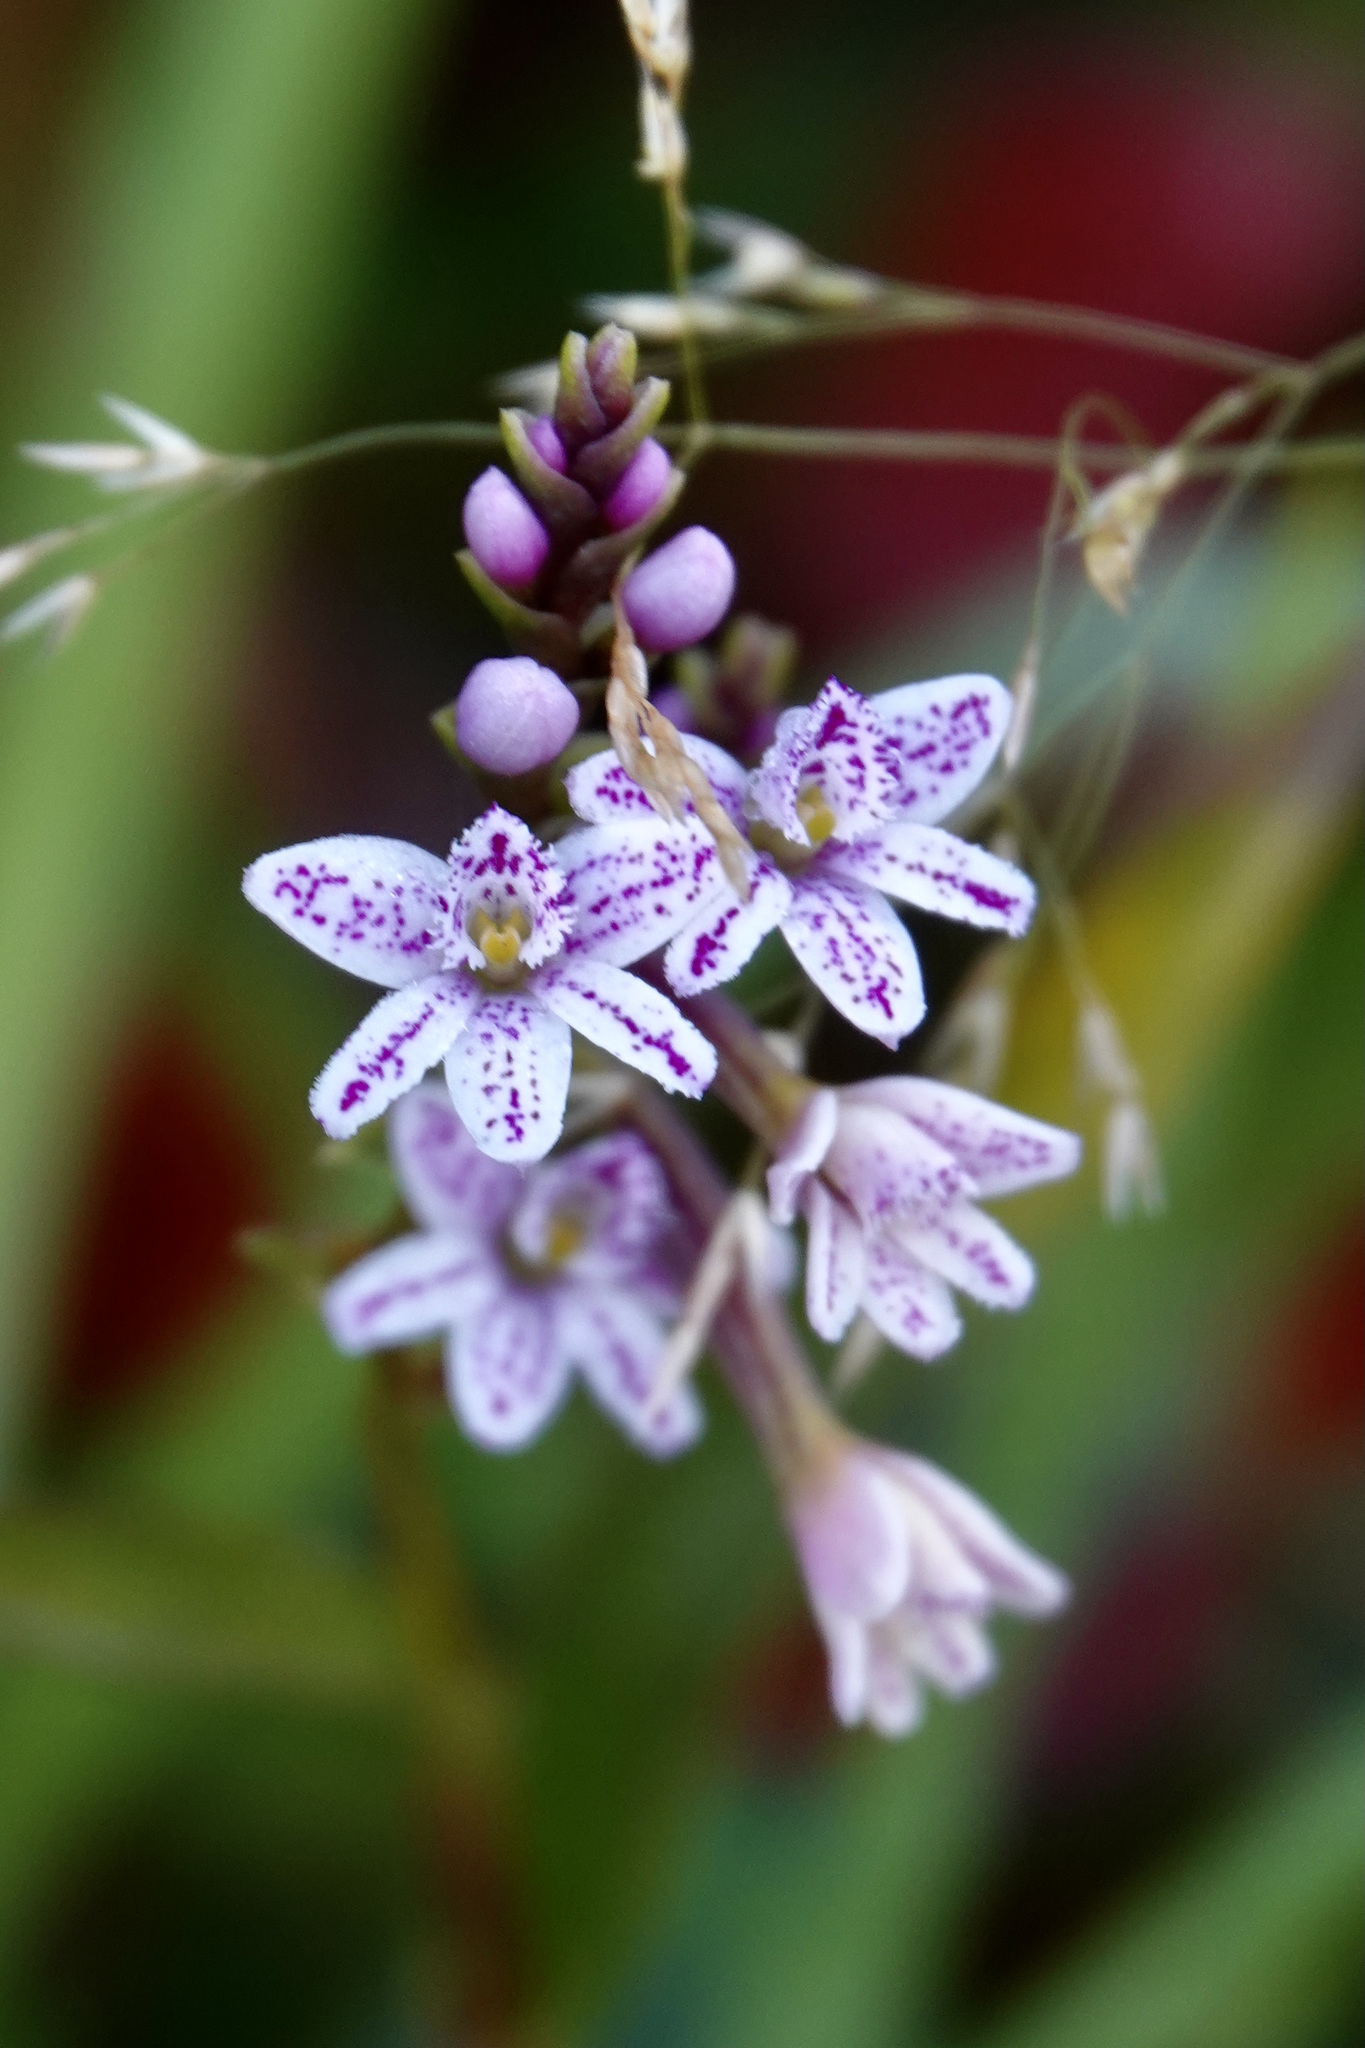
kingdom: Plantae
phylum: Tracheophyta
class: Liliopsida
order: Asparagales
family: Orchidaceae
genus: Epidendrum
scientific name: Epidendrum fimbriatum
